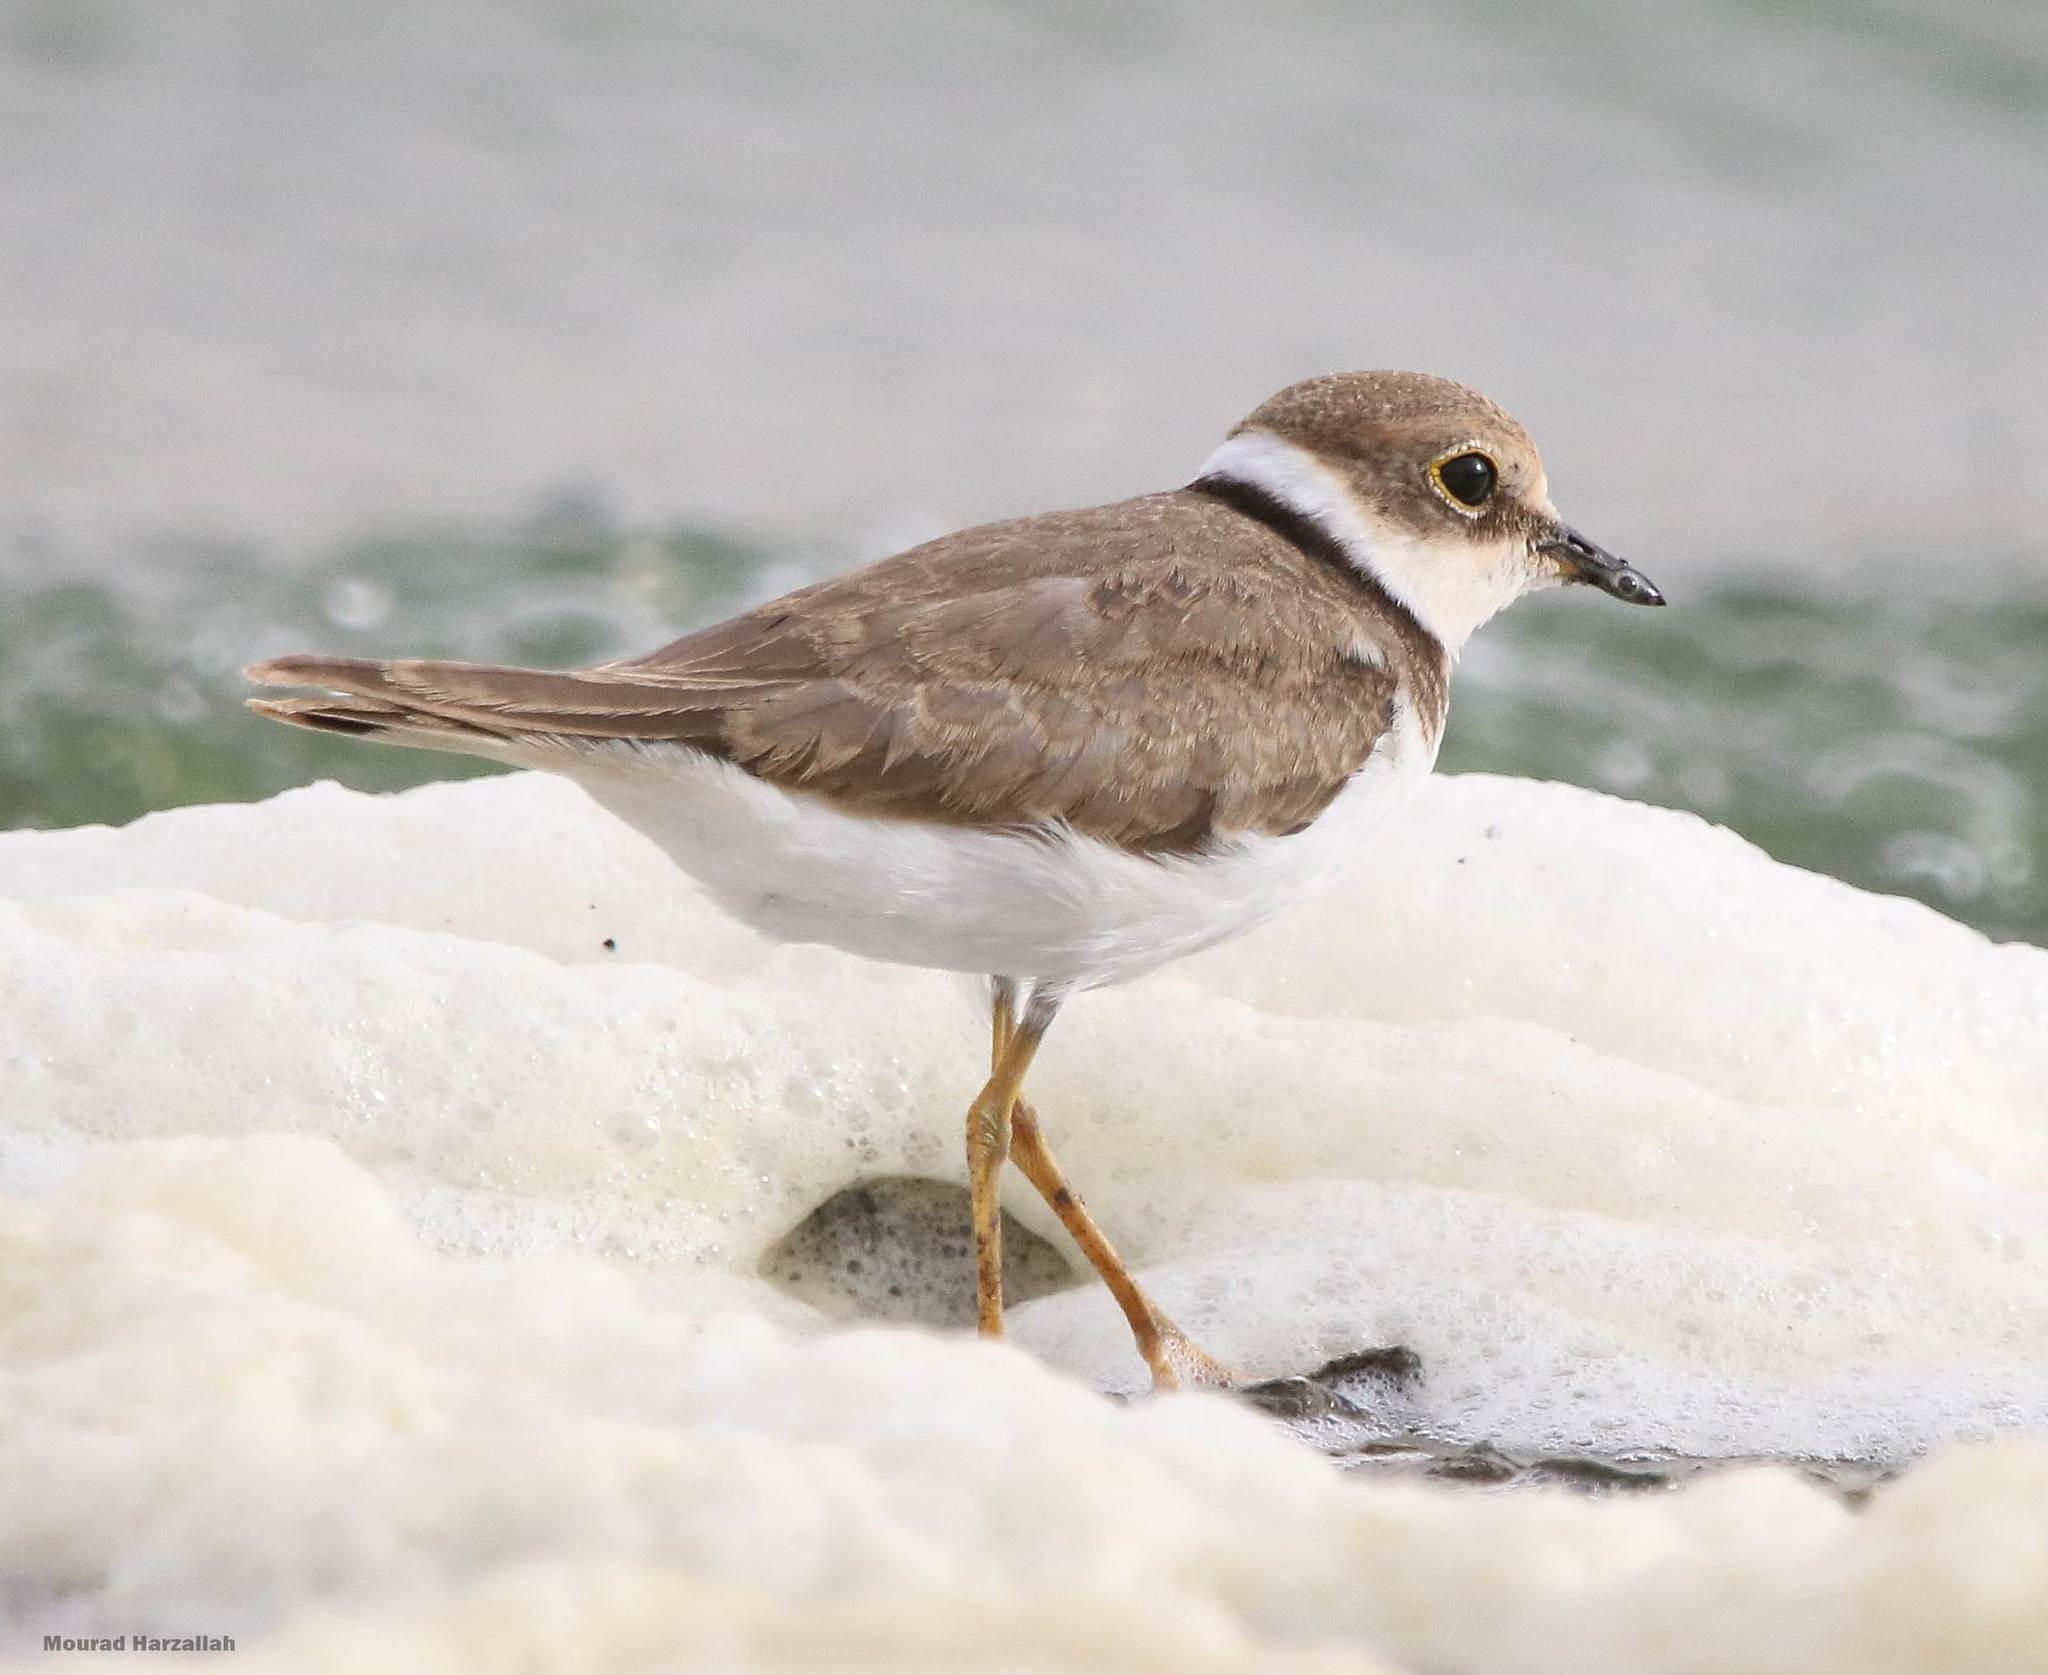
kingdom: Animalia
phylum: Chordata
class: Aves
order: Charadriiformes
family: Charadriidae
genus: Charadrius
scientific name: Charadrius dubius
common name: Little ringed plover
